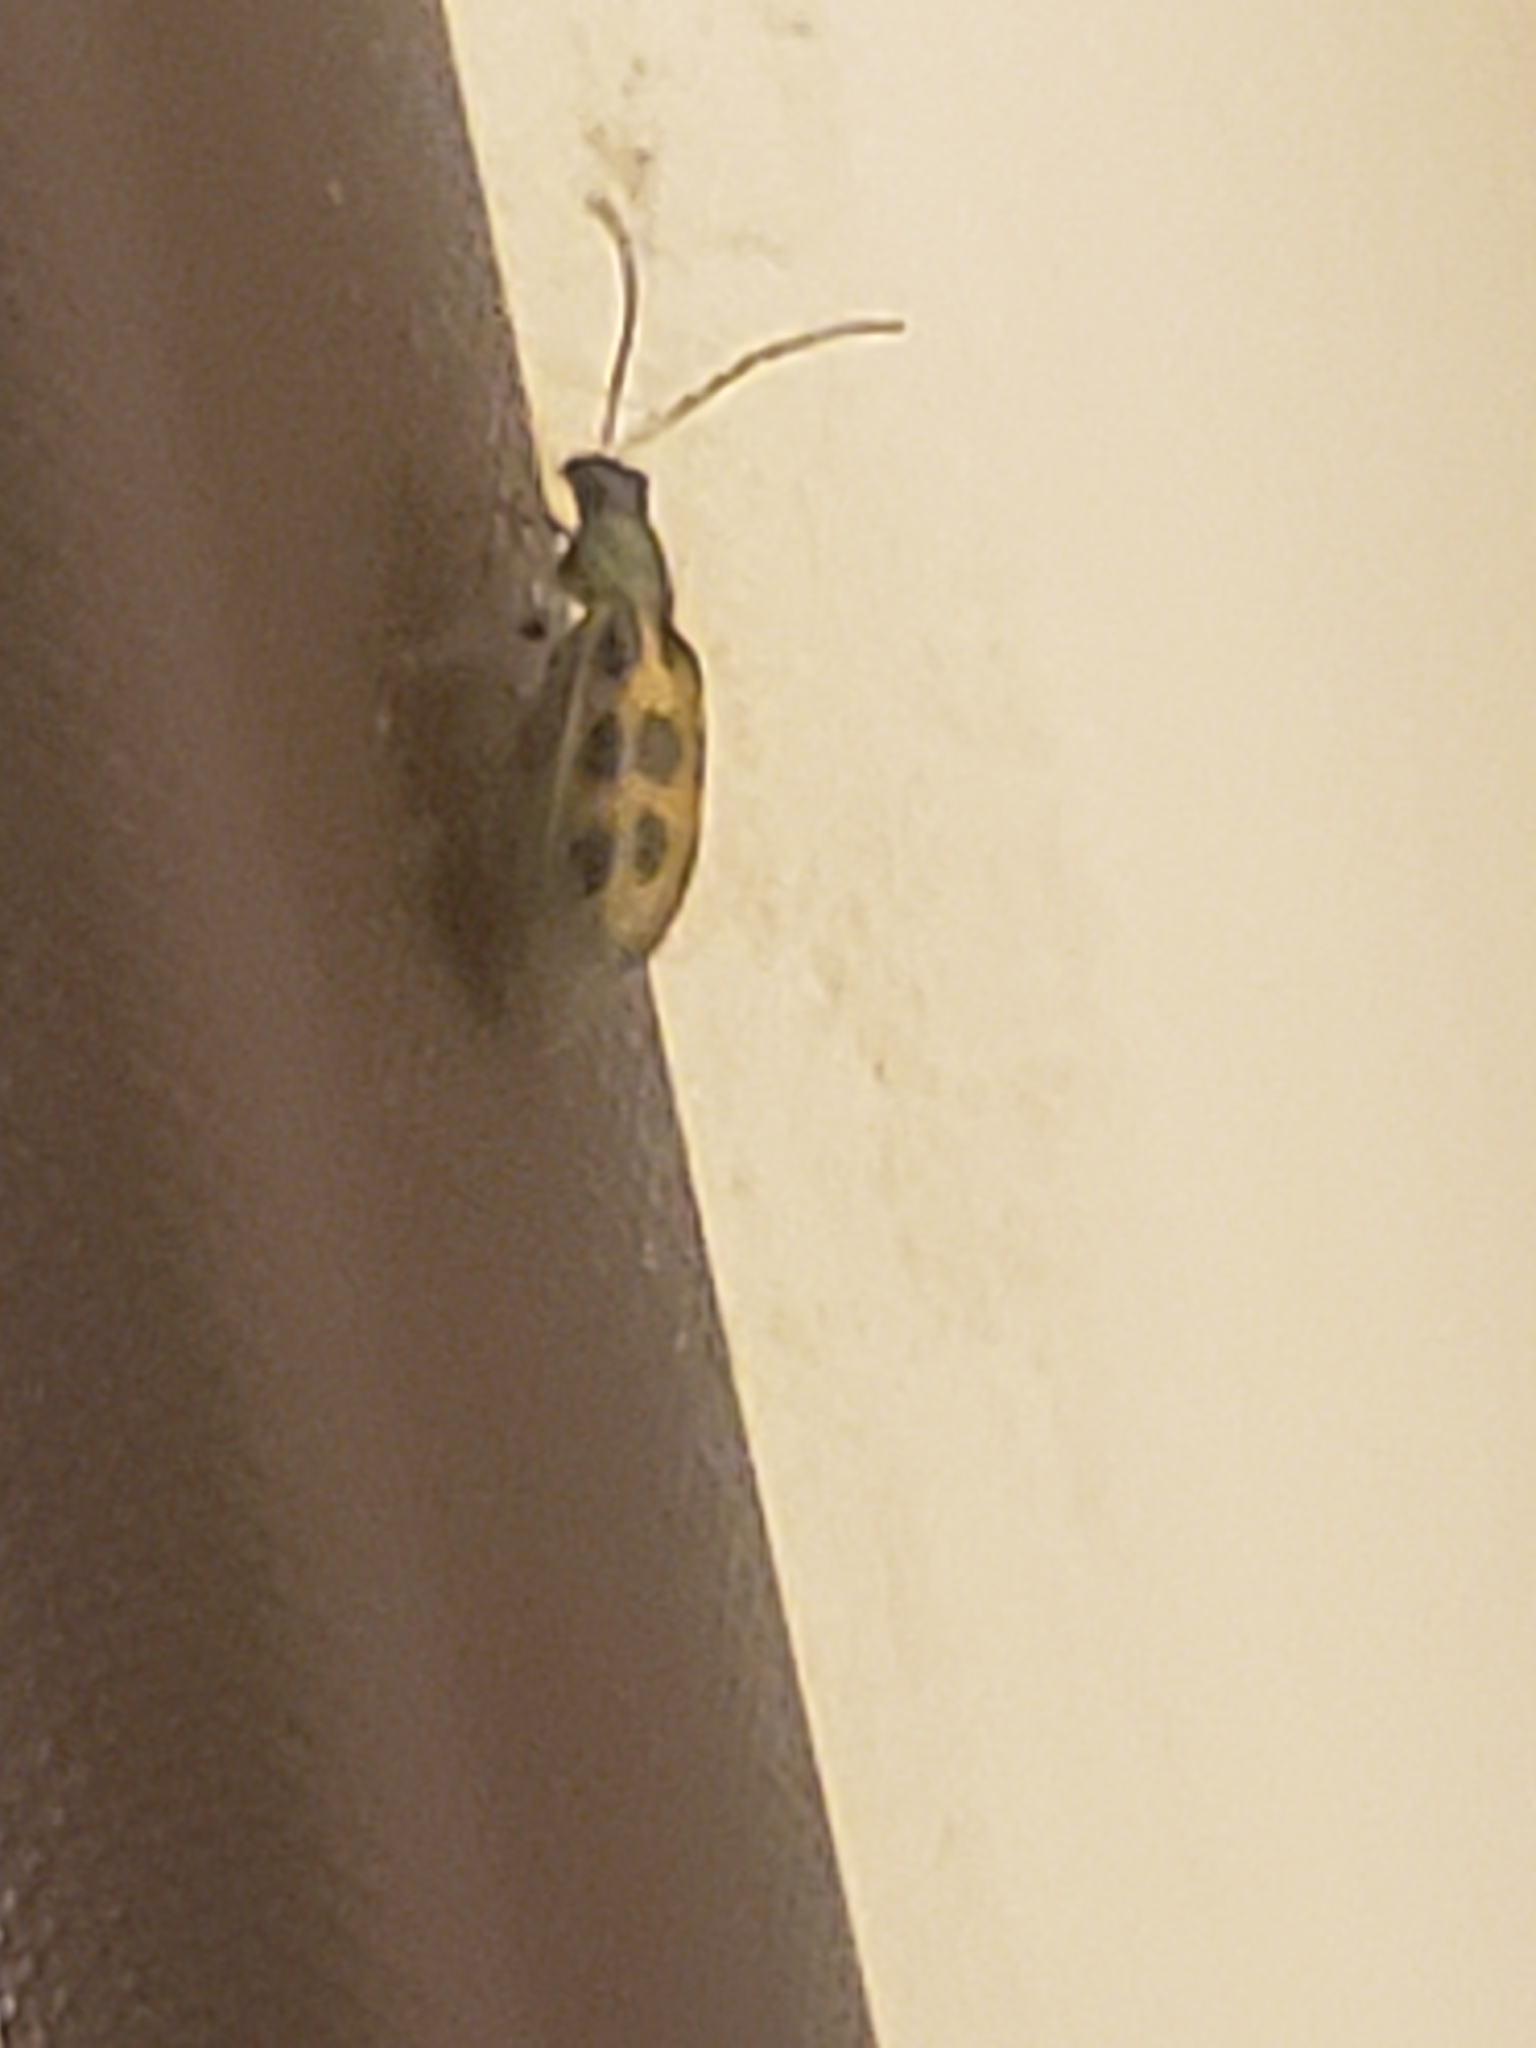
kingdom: Animalia
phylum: Arthropoda
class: Insecta
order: Coleoptera
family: Chrysomelidae
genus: Diabrotica
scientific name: Diabrotica undecimpunctata
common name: Spotted cucumber beetle
